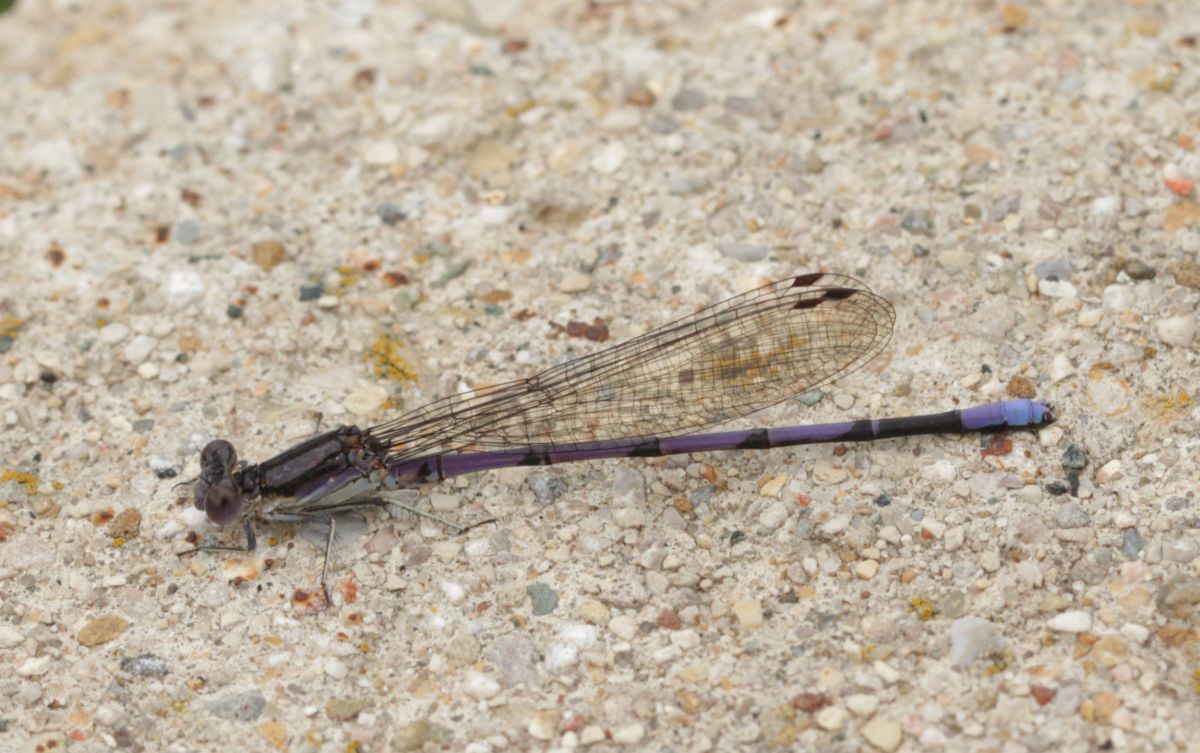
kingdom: Animalia
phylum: Arthropoda
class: Insecta
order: Odonata
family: Coenagrionidae
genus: Argia
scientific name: Argia fumipennis
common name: Variable dancer
